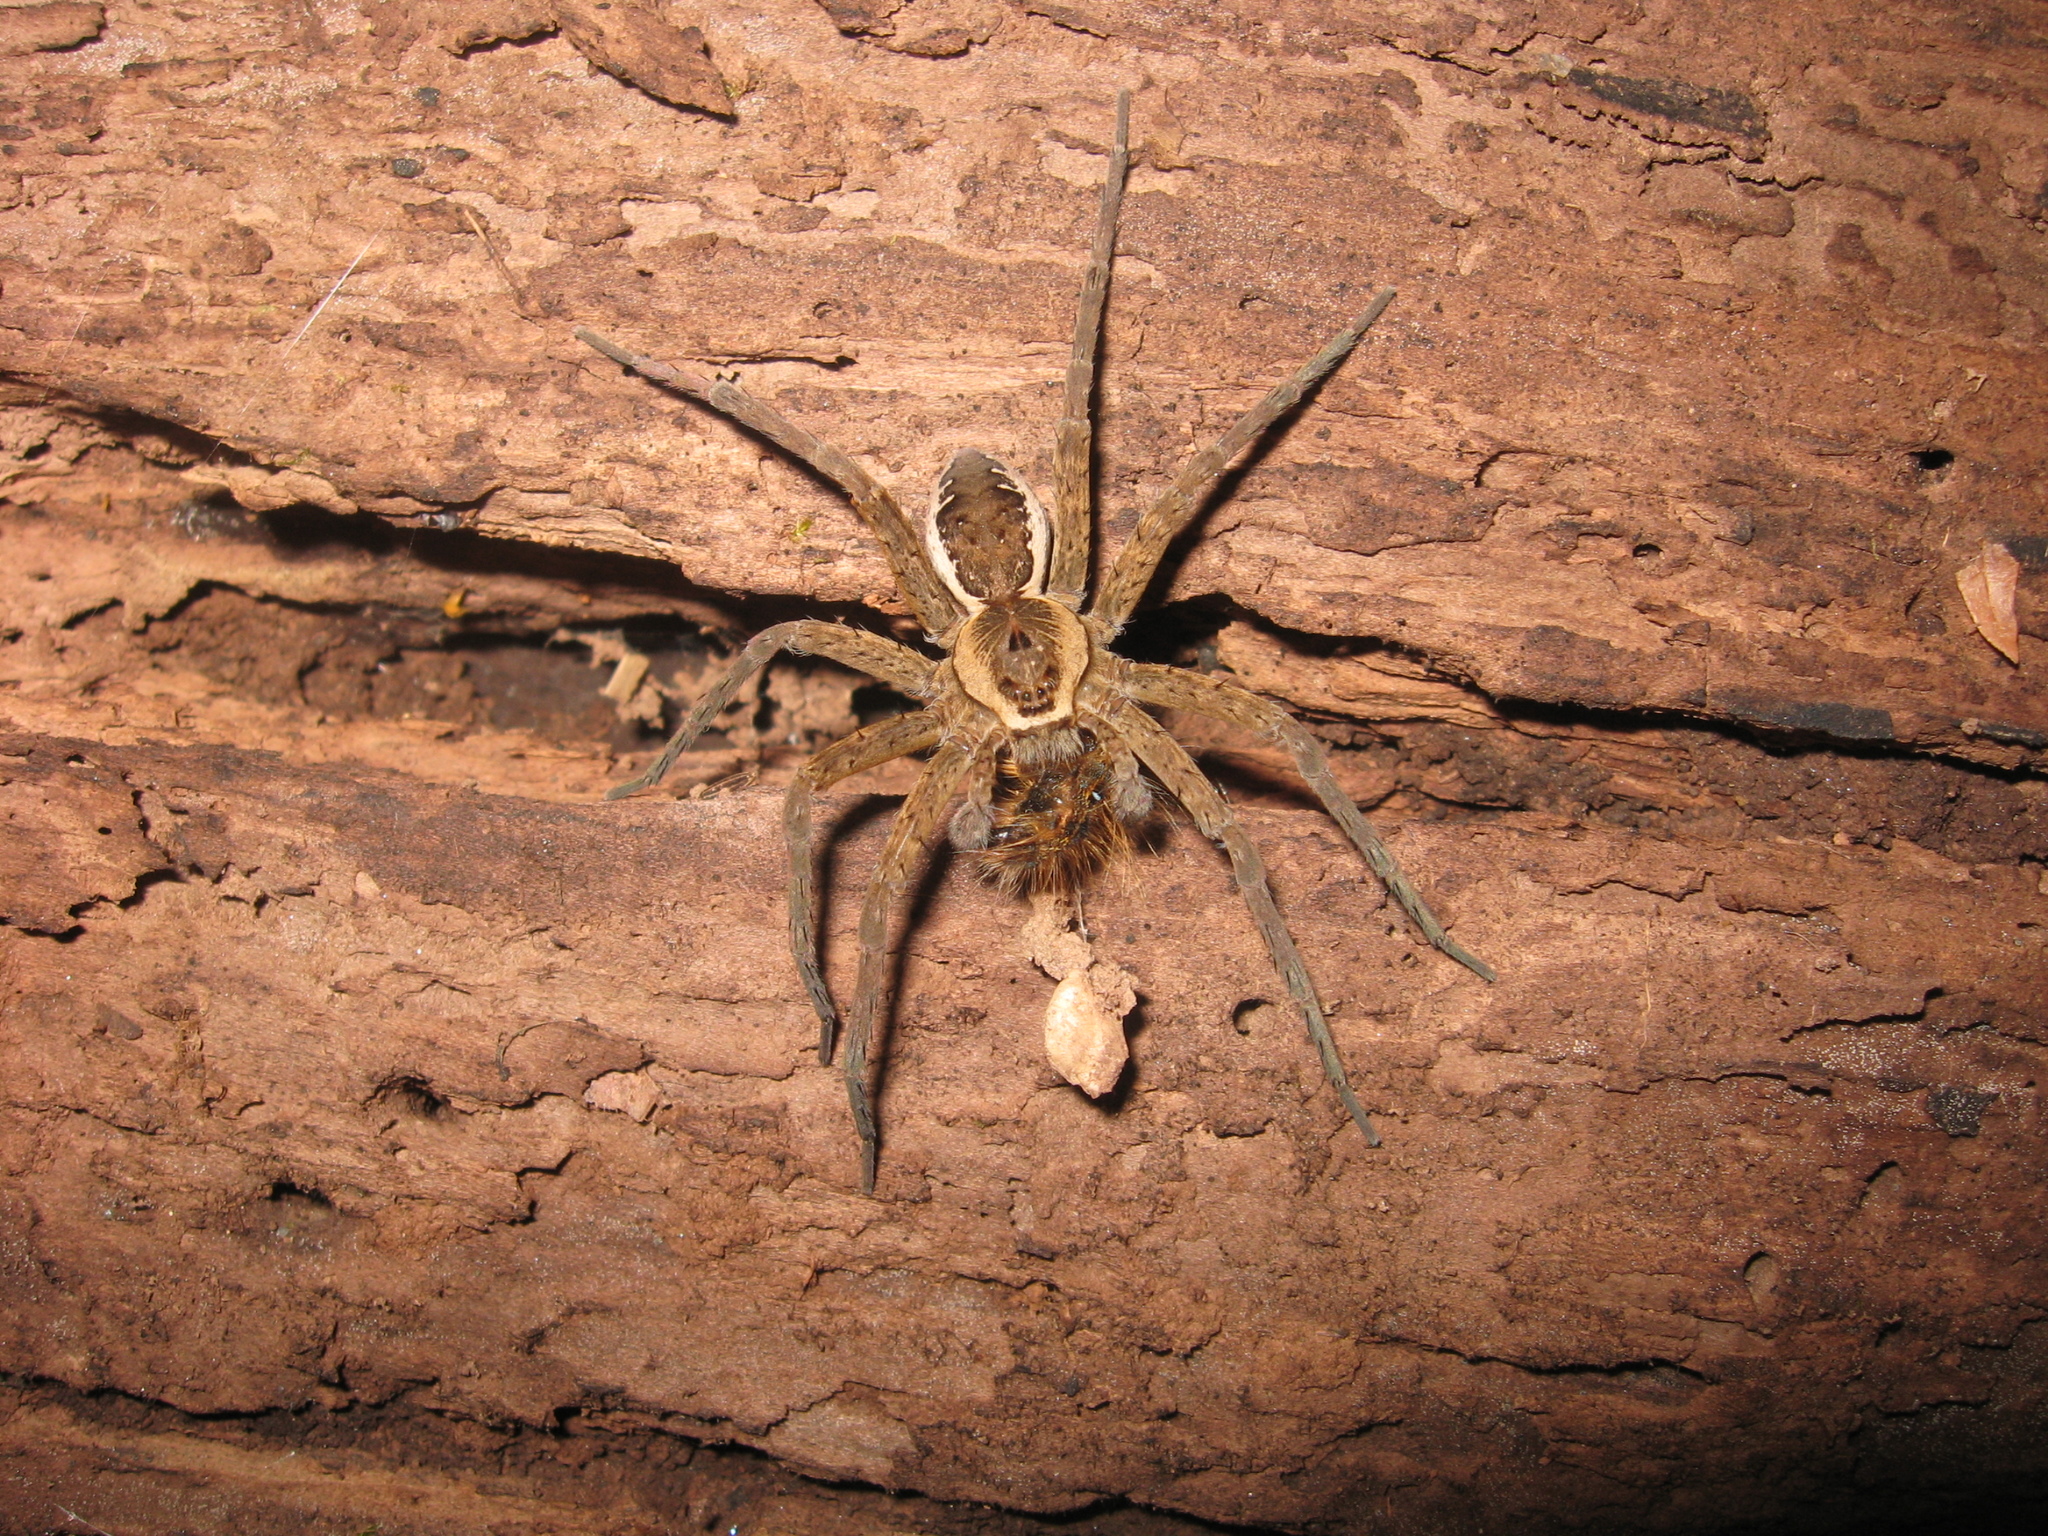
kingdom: Animalia
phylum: Arthropoda
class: Arachnida
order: Araneae
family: Pisauridae
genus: Dolomedes
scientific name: Dolomedes vittatus
